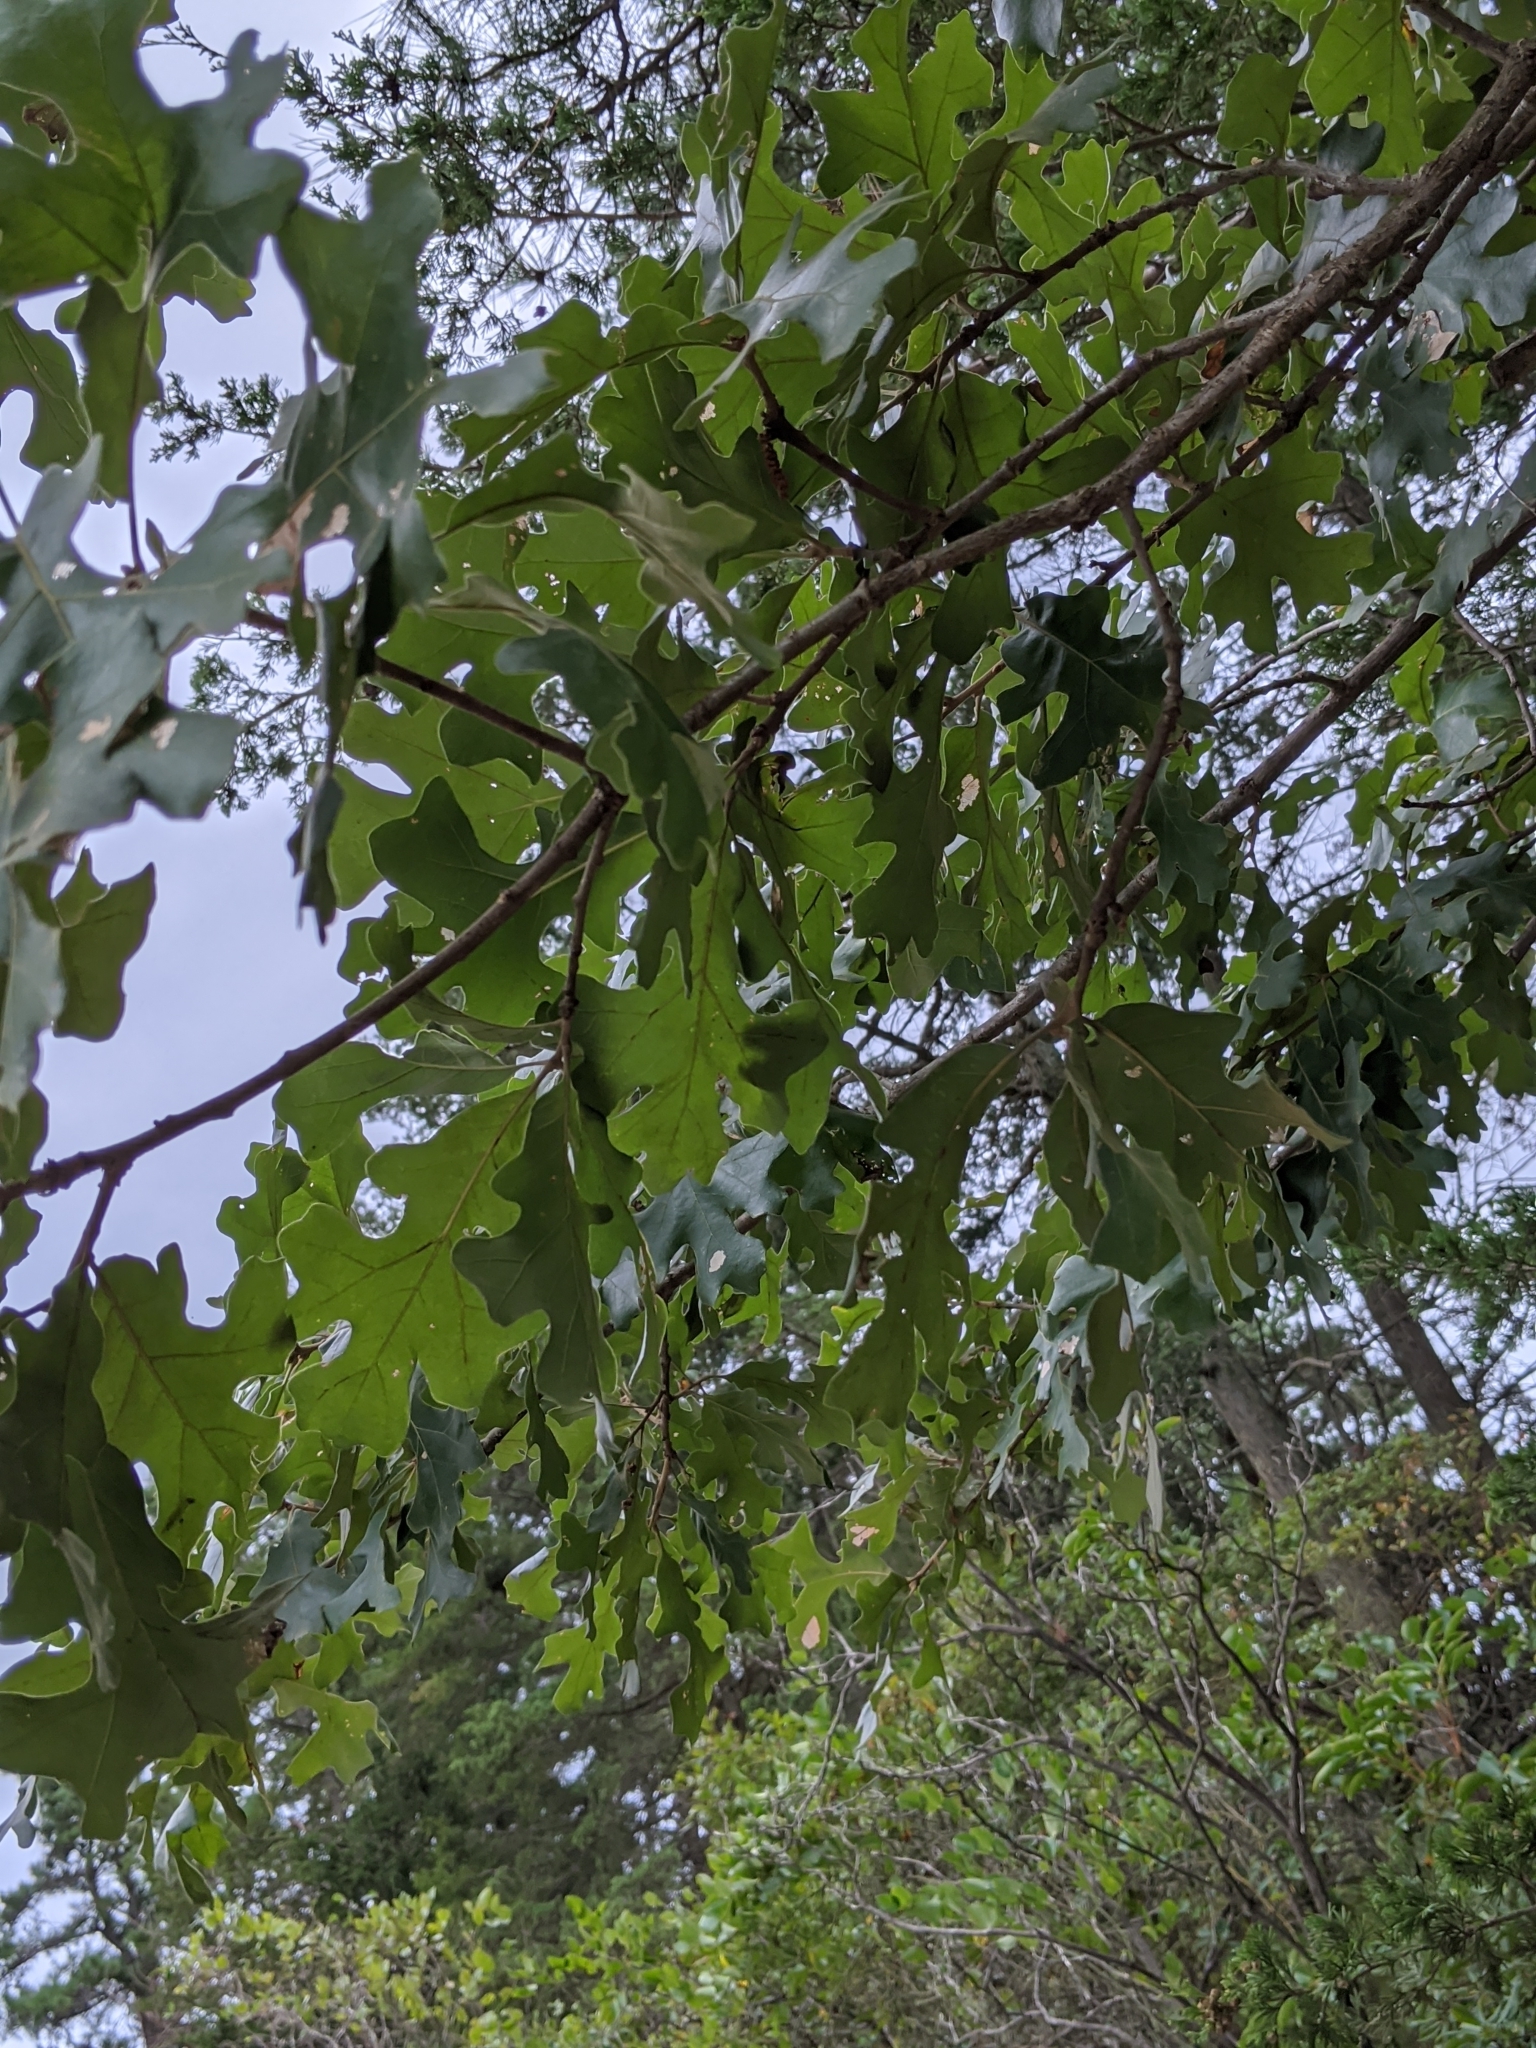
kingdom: Plantae
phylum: Tracheophyta
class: Magnoliopsida
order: Fagales
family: Fagaceae
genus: Quercus
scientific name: Quercus stellata
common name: Post oak
